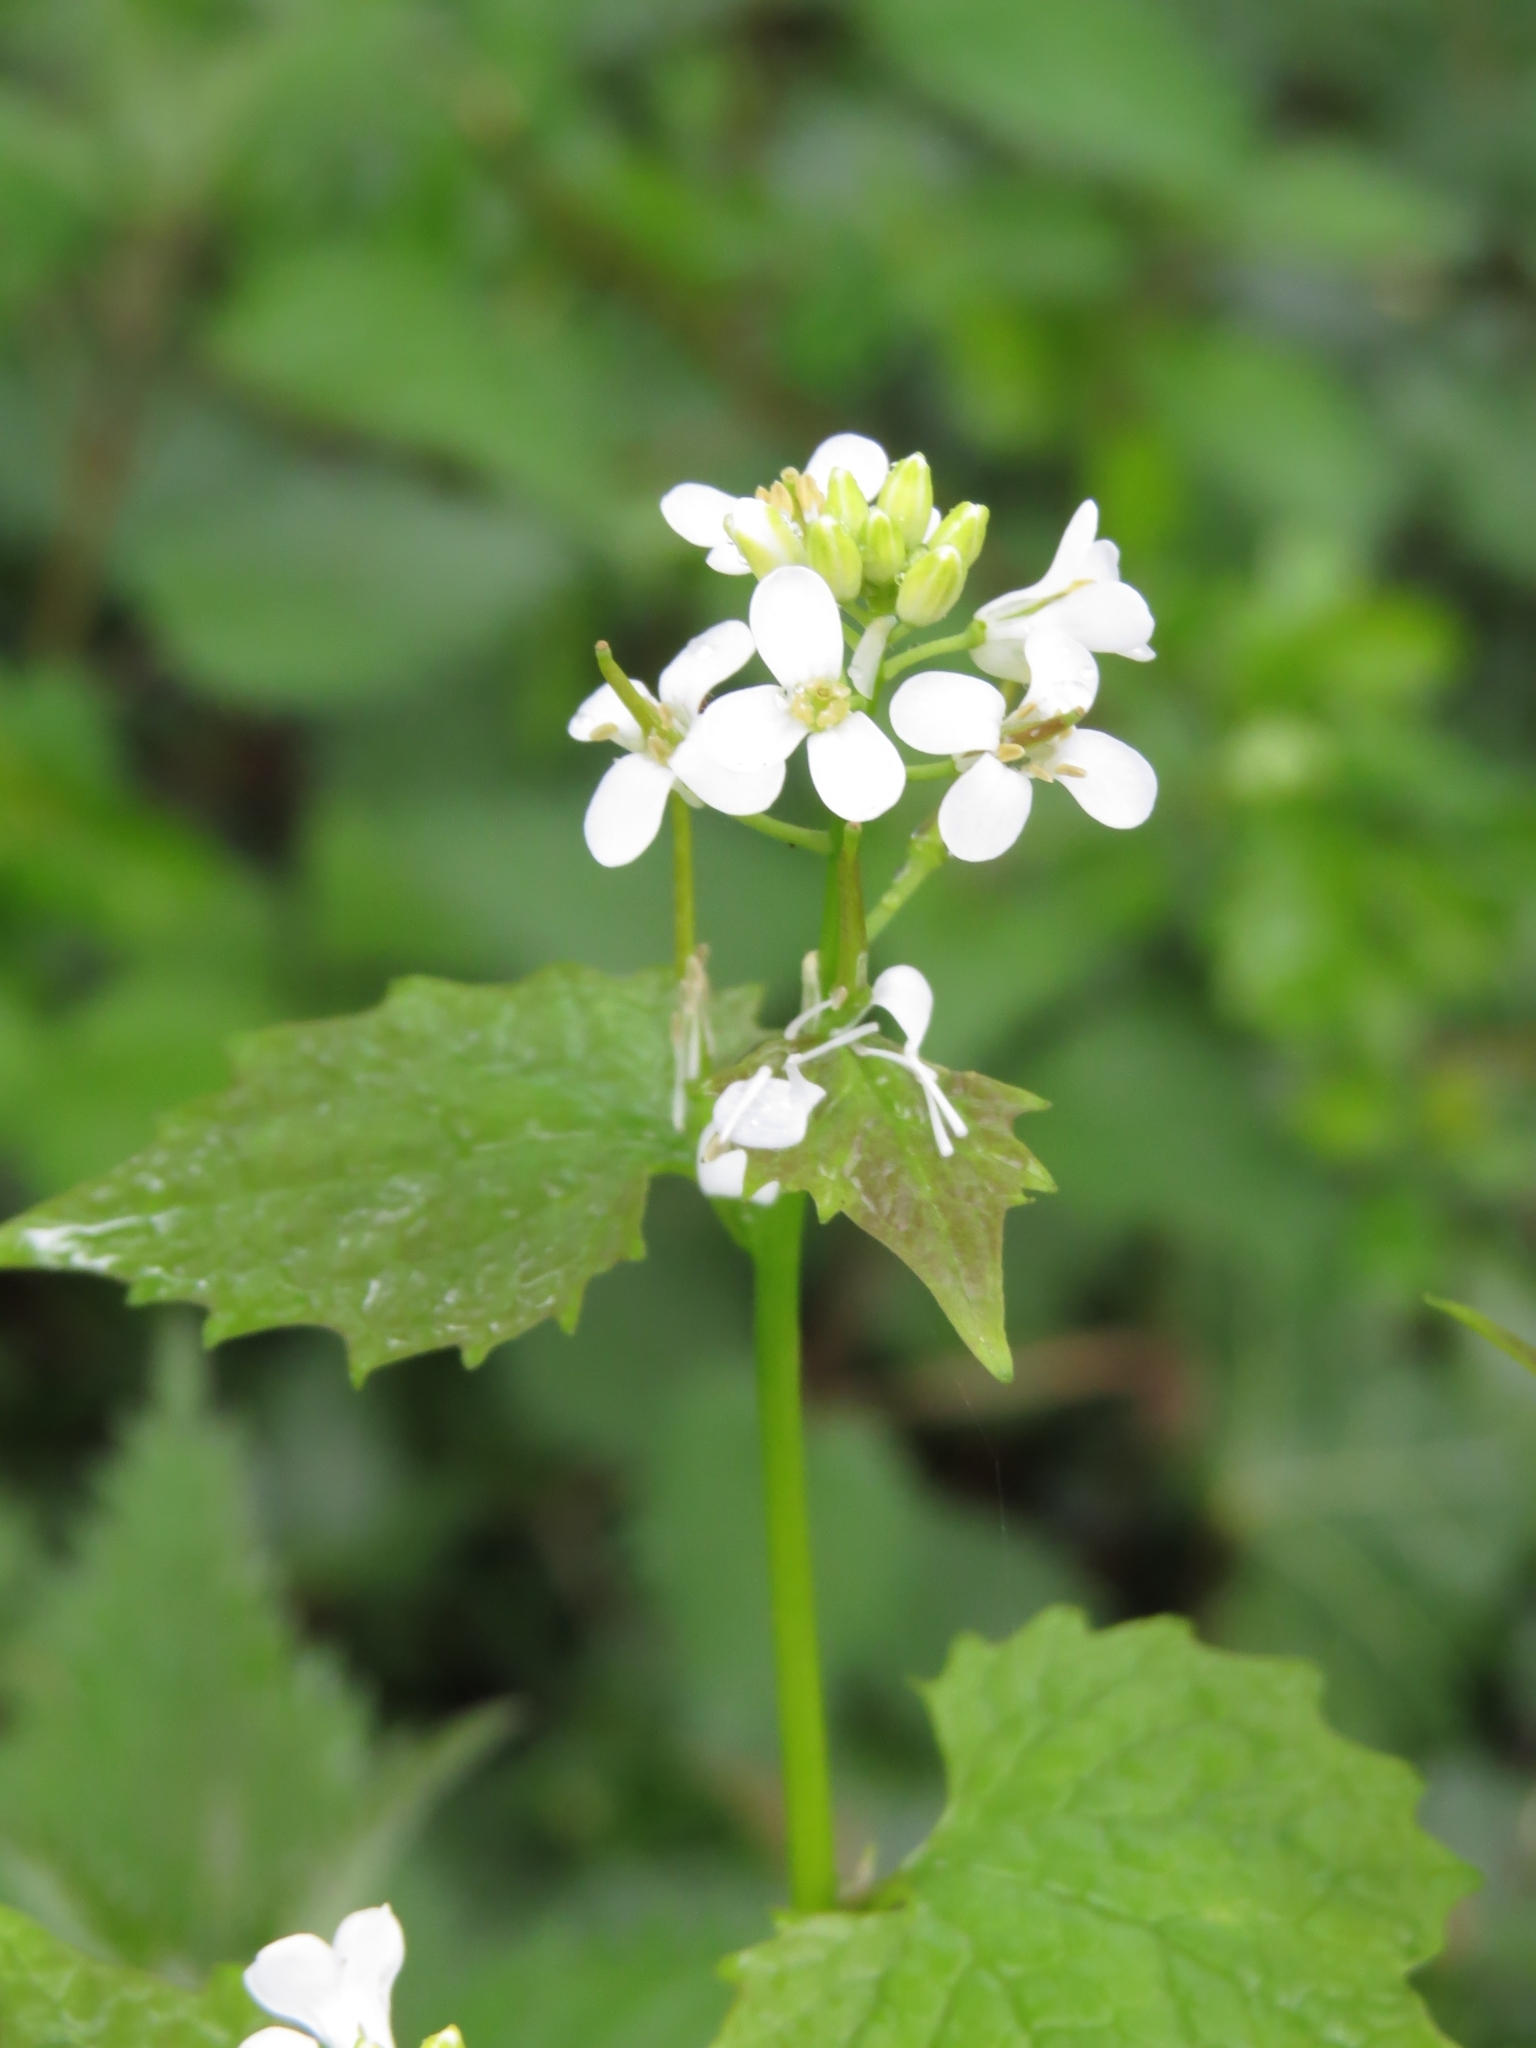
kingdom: Plantae
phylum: Tracheophyta
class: Magnoliopsida
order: Brassicales
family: Brassicaceae
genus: Alliaria
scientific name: Alliaria petiolata
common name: Garlic mustard
